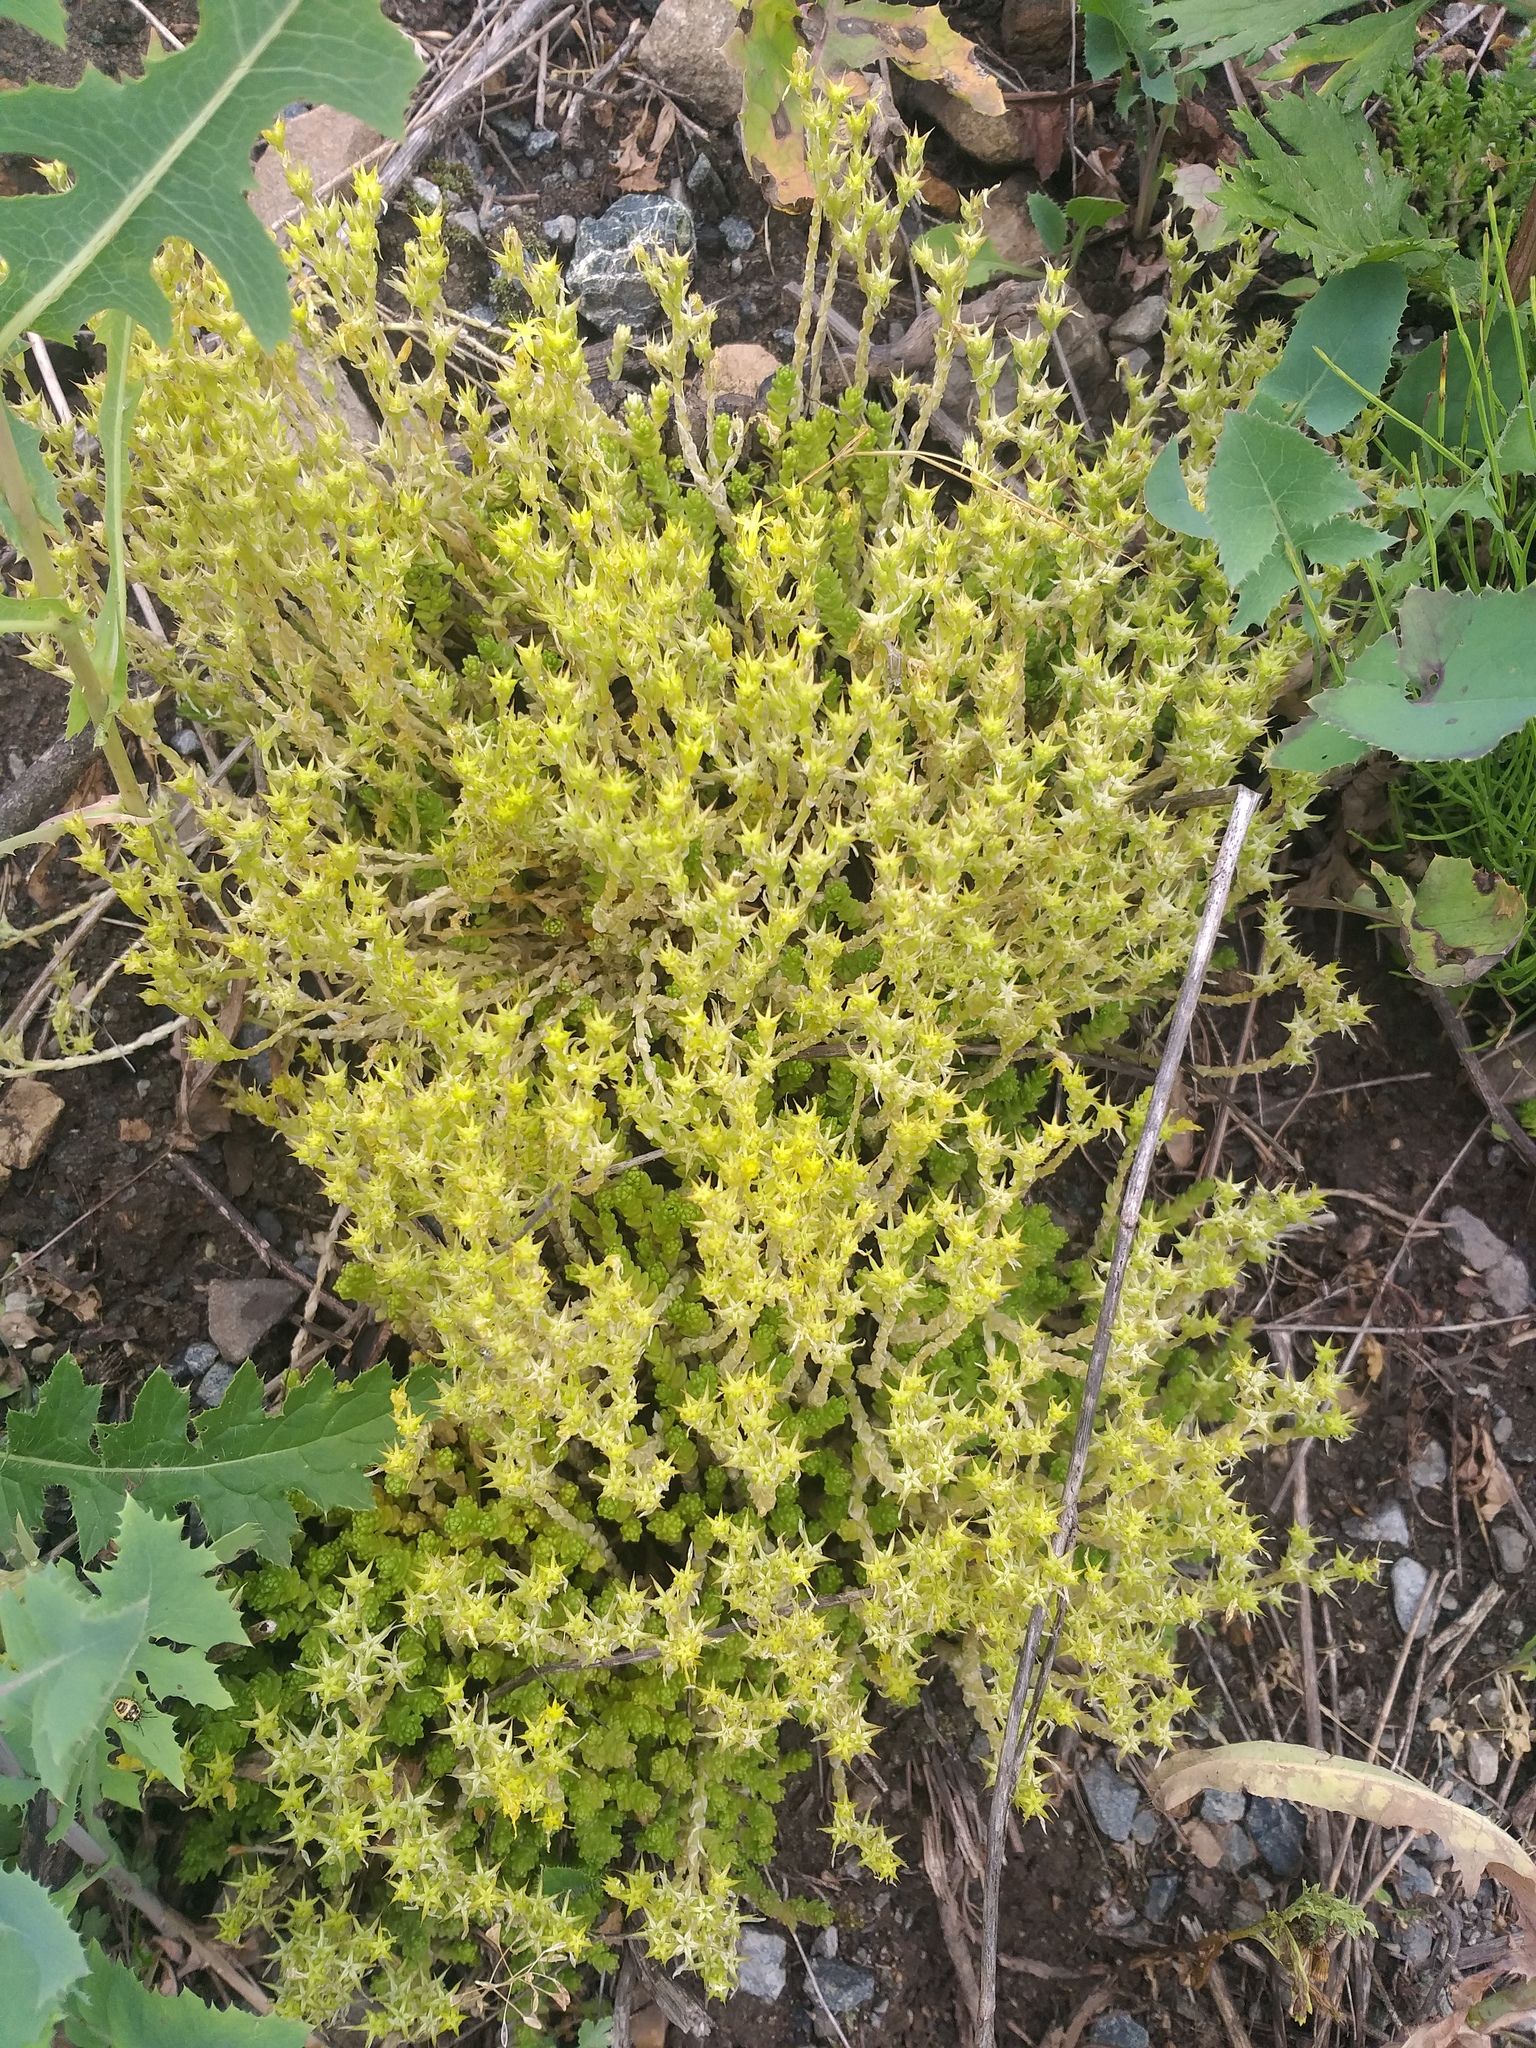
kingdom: Plantae
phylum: Tracheophyta
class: Magnoliopsida
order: Saxifragales
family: Crassulaceae
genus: Sedum
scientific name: Sedum acre
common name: Biting stonecrop
